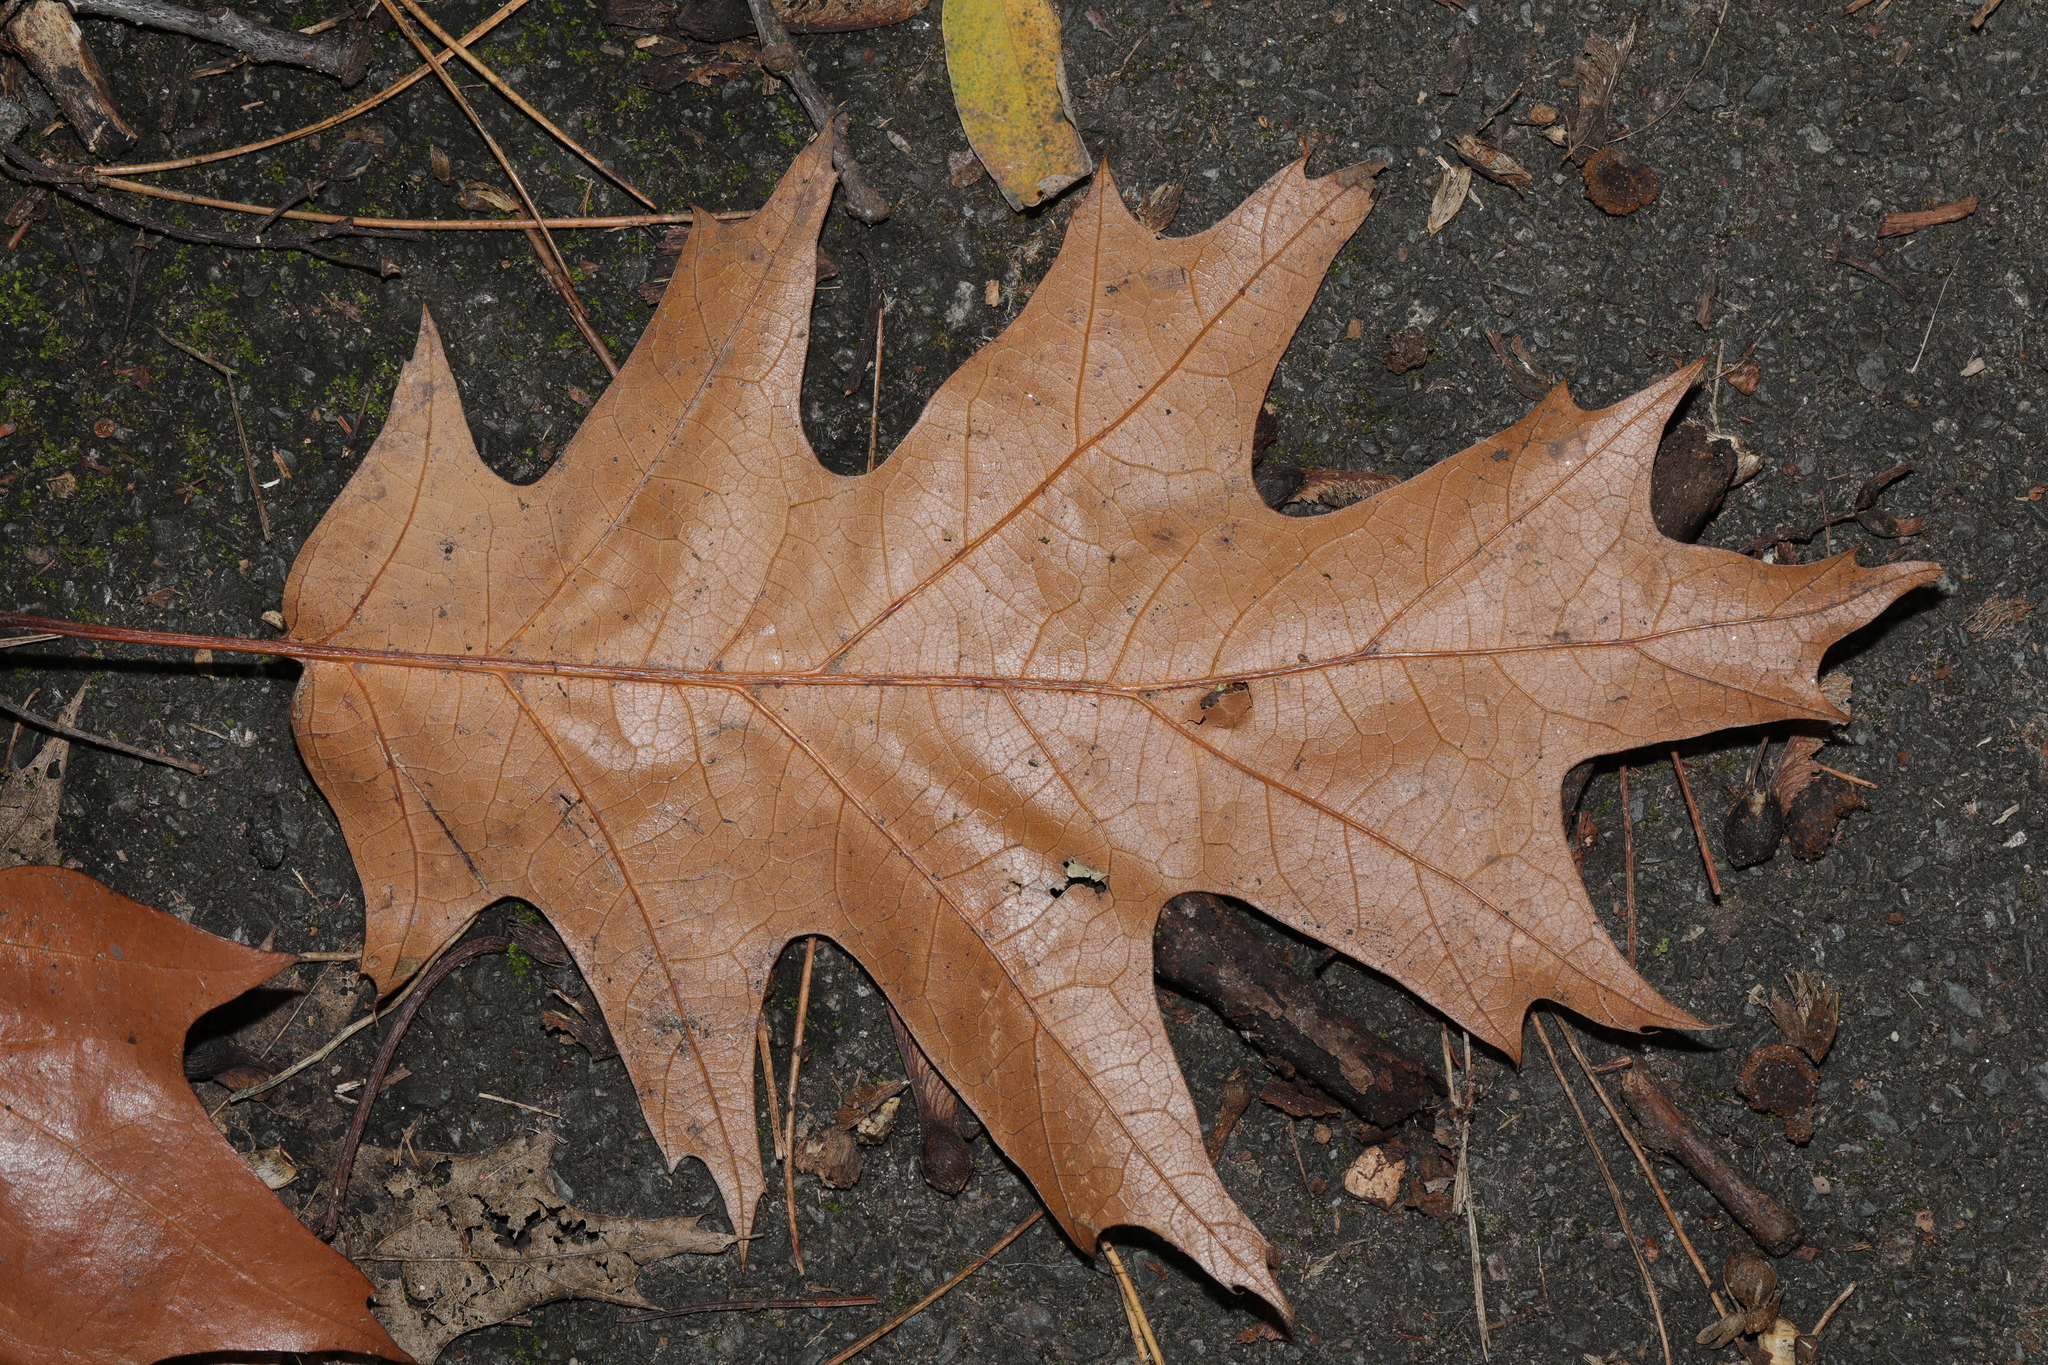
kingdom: Plantae
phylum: Tracheophyta
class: Magnoliopsida
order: Fagales
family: Fagaceae
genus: Quercus
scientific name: Quercus rubra
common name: Red oak
